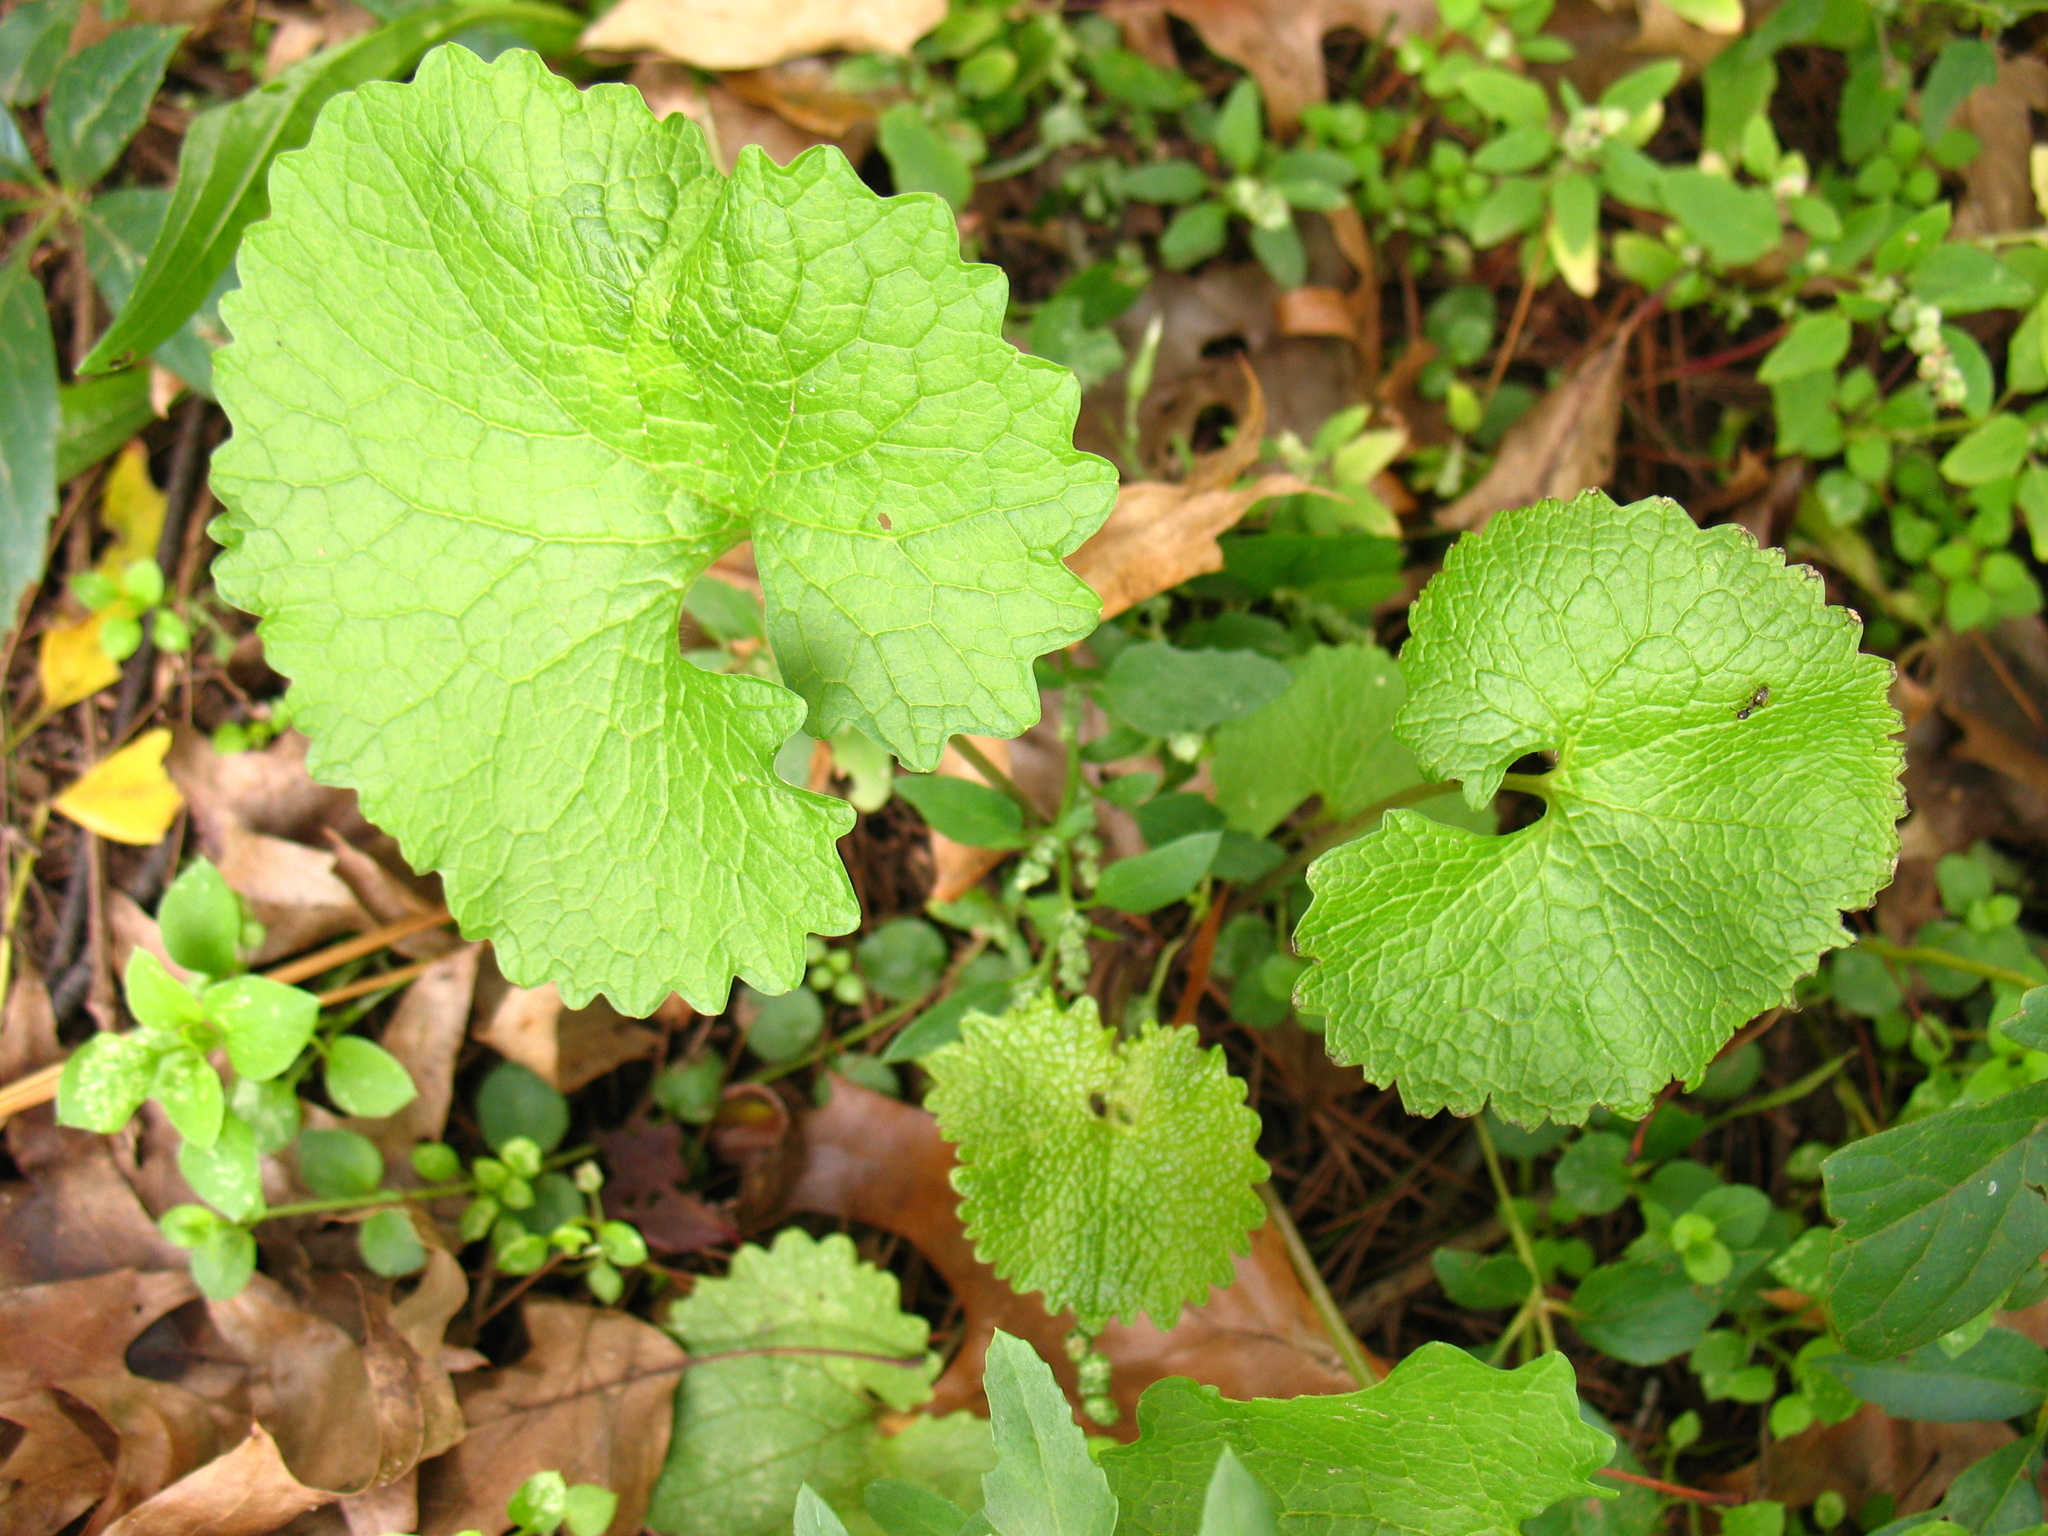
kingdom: Plantae
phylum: Tracheophyta
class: Magnoliopsida
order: Brassicales
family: Brassicaceae
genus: Alliaria
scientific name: Alliaria petiolata
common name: Garlic mustard
